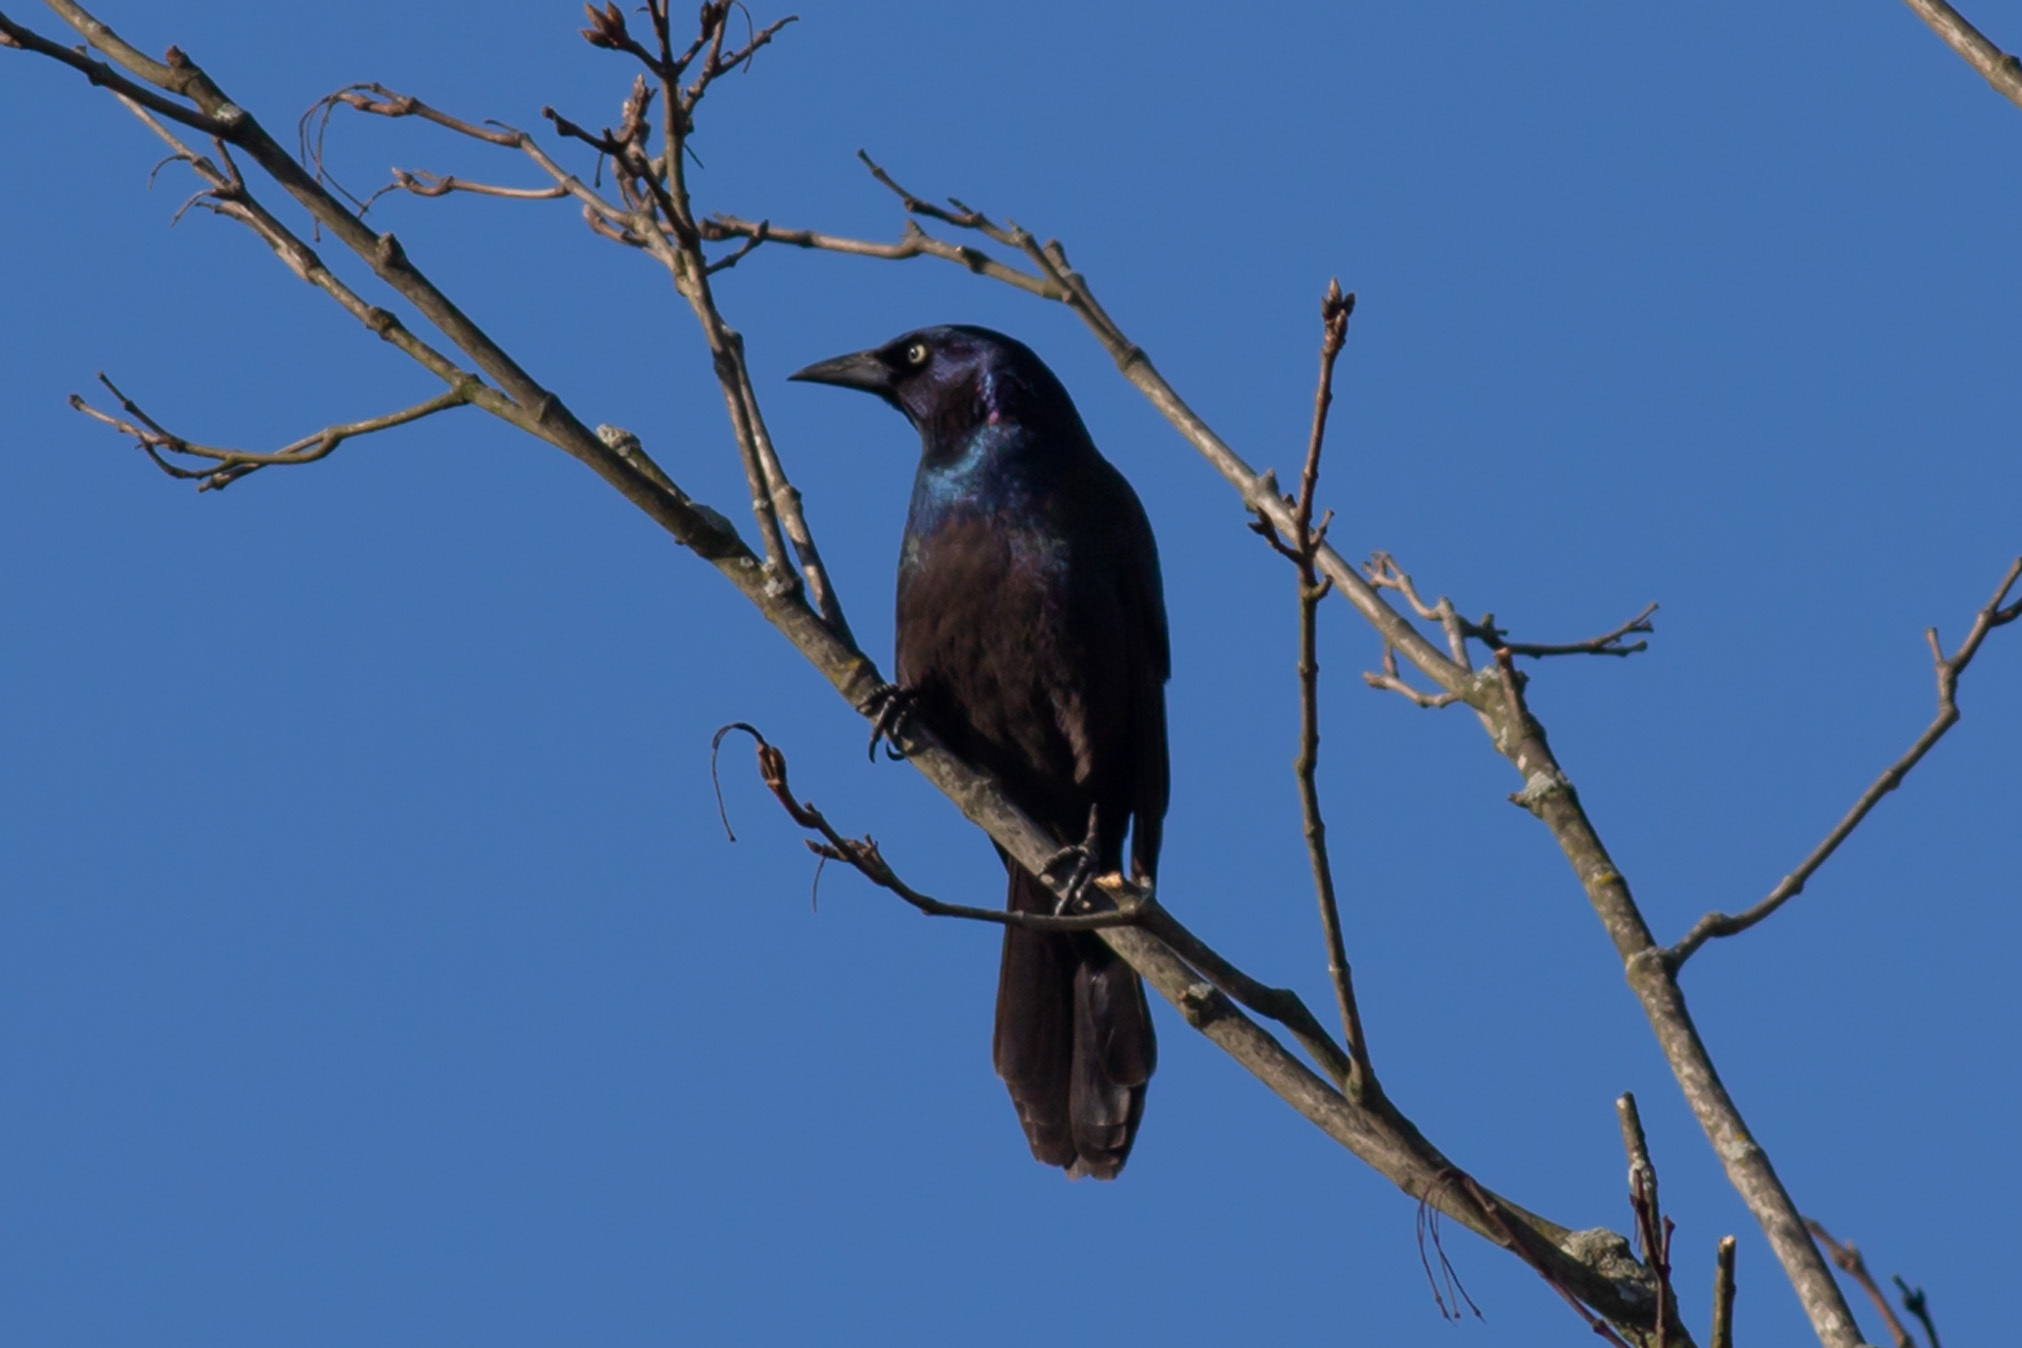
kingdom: Animalia
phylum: Chordata
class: Aves
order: Passeriformes
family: Icteridae
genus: Quiscalus
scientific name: Quiscalus quiscula
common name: Common grackle
